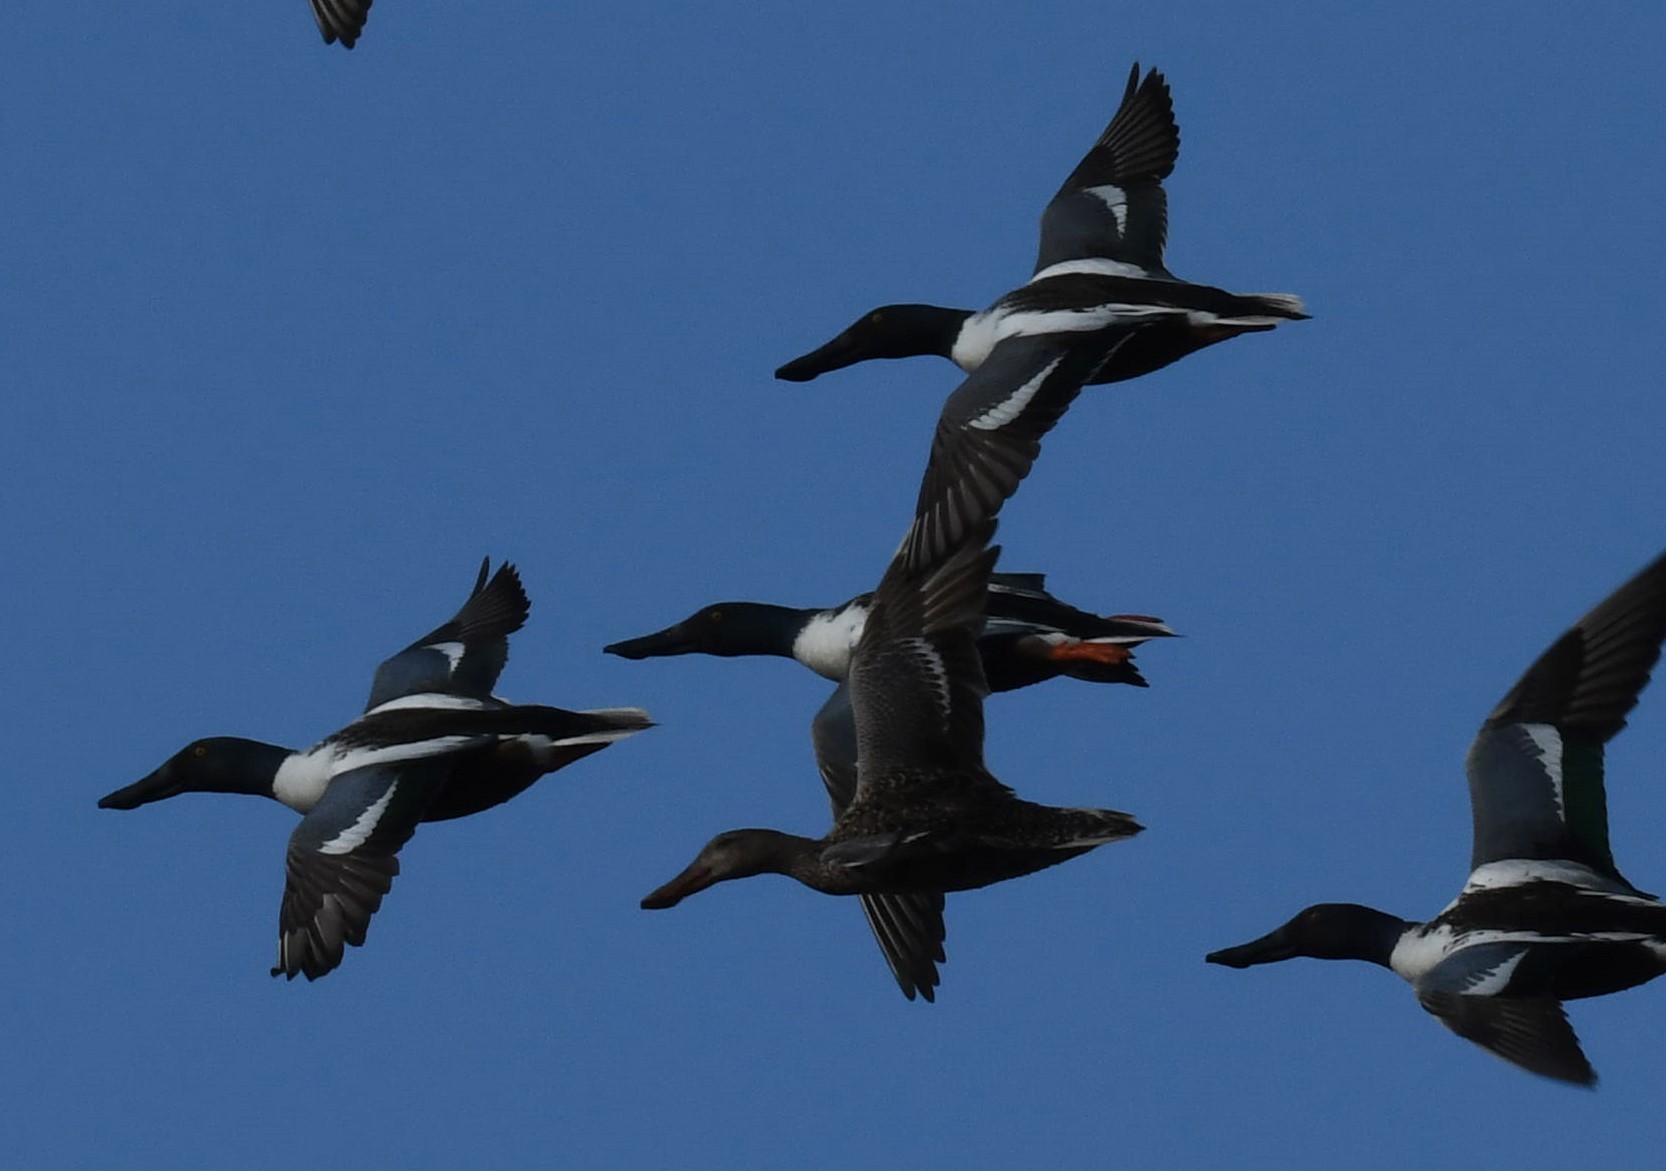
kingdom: Animalia
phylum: Chordata
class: Aves
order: Anseriformes
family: Anatidae
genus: Spatula
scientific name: Spatula clypeata
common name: Northern shoveler
